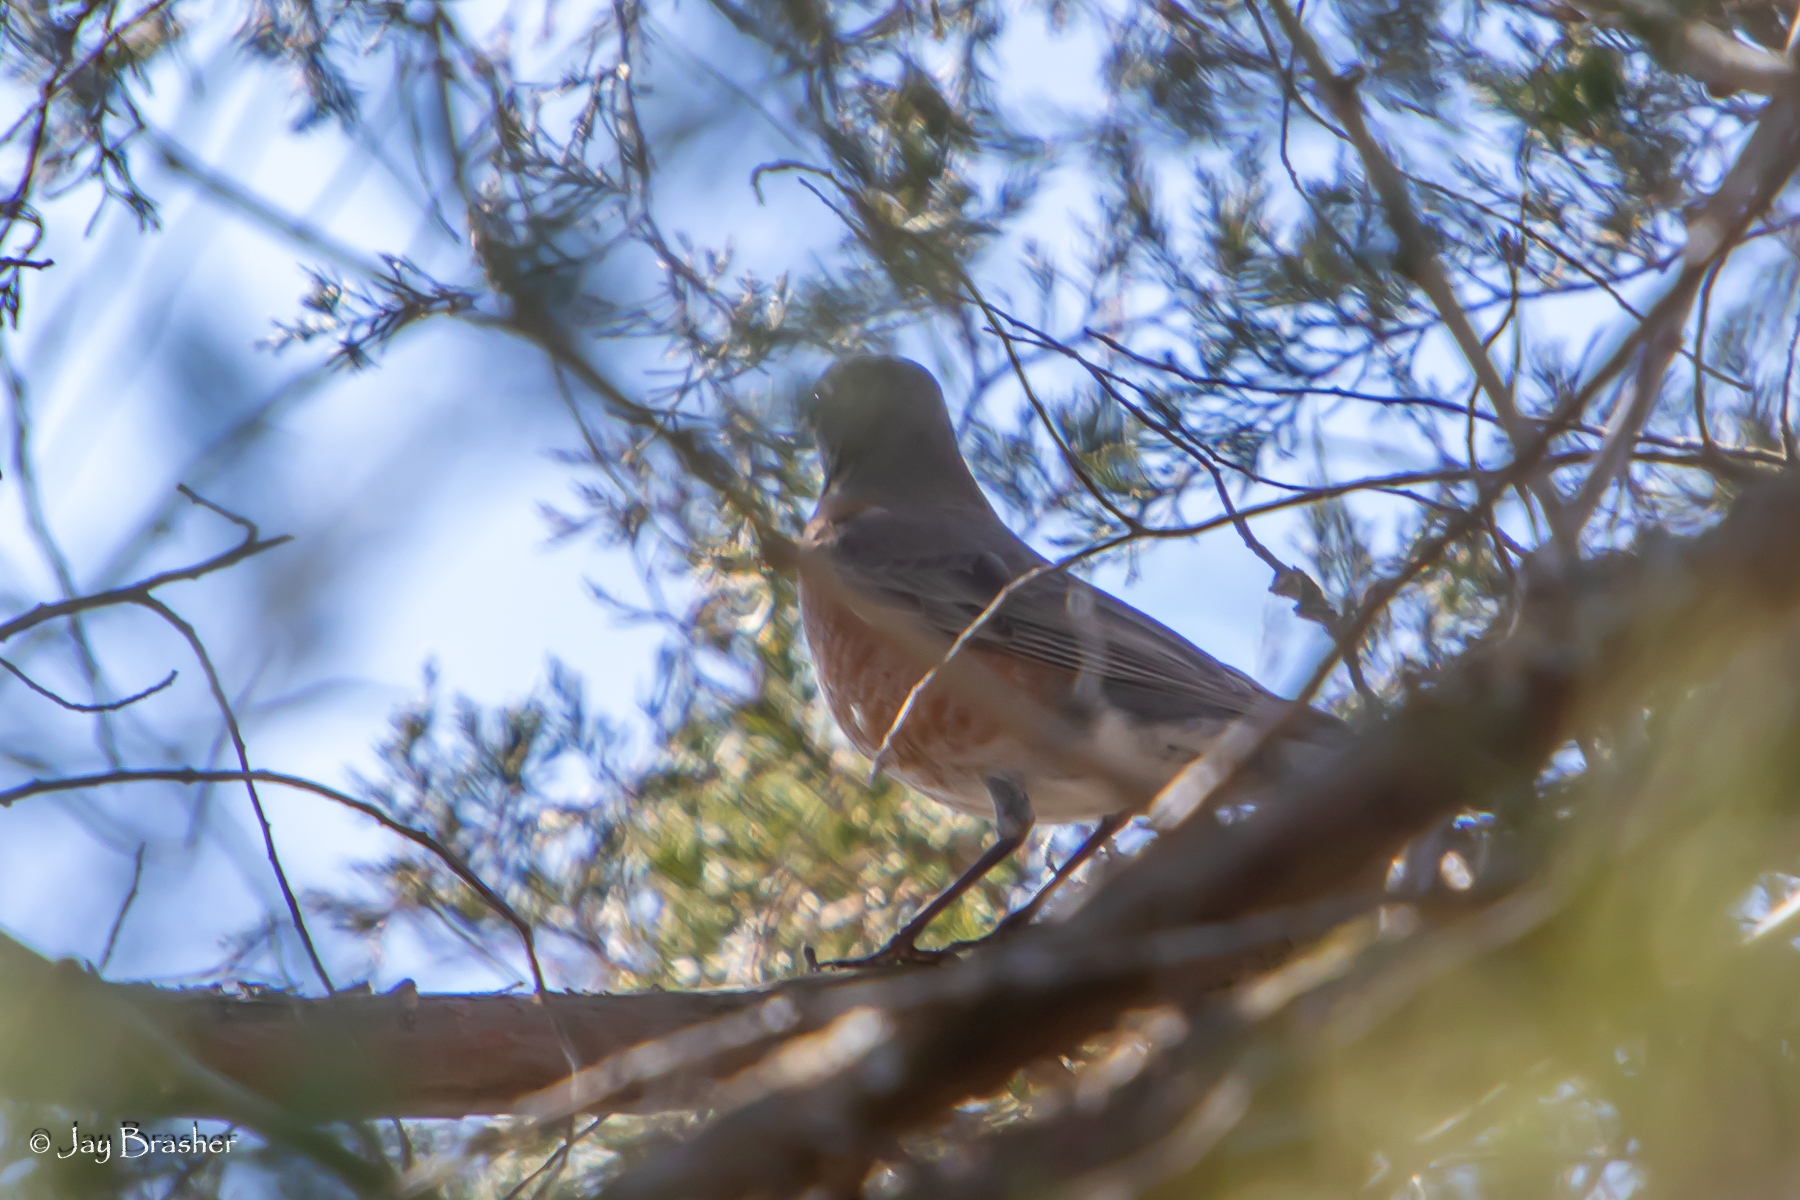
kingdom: Animalia
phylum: Chordata
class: Aves
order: Passeriformes
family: Turdidae
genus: Turdus
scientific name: Turdus migratorius
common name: American robin
